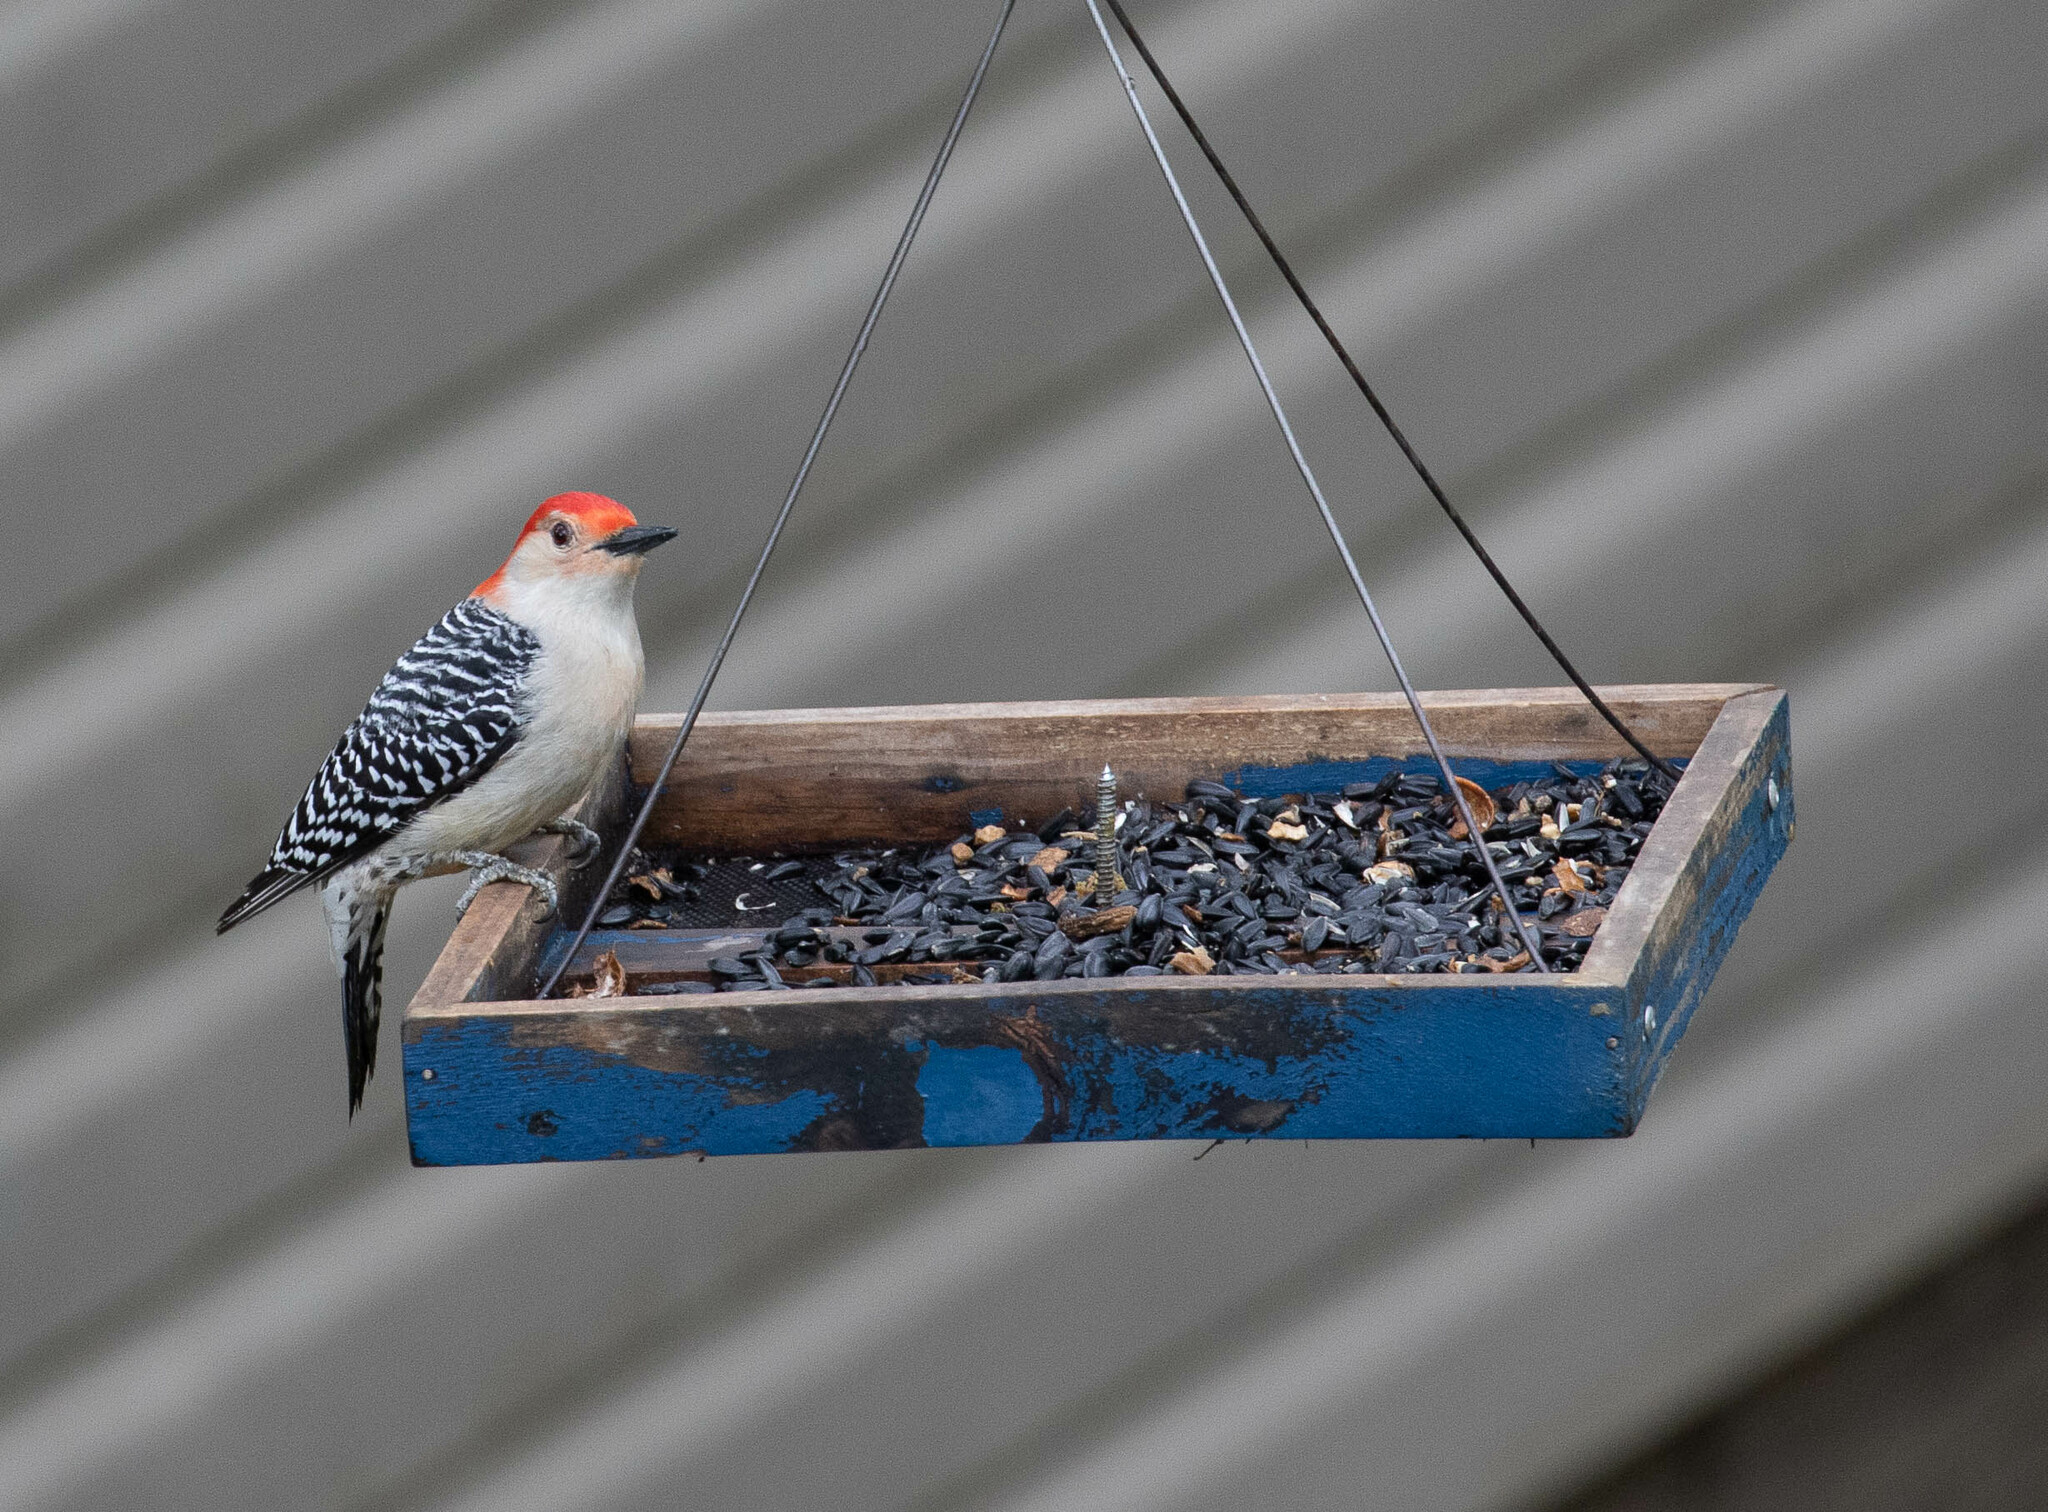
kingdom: Animalia
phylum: Chordata
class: Aves
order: Piciformes
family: Picidae
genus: Melanerpes
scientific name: Melanerpes carolinus
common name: Red-bellied woodpecker
